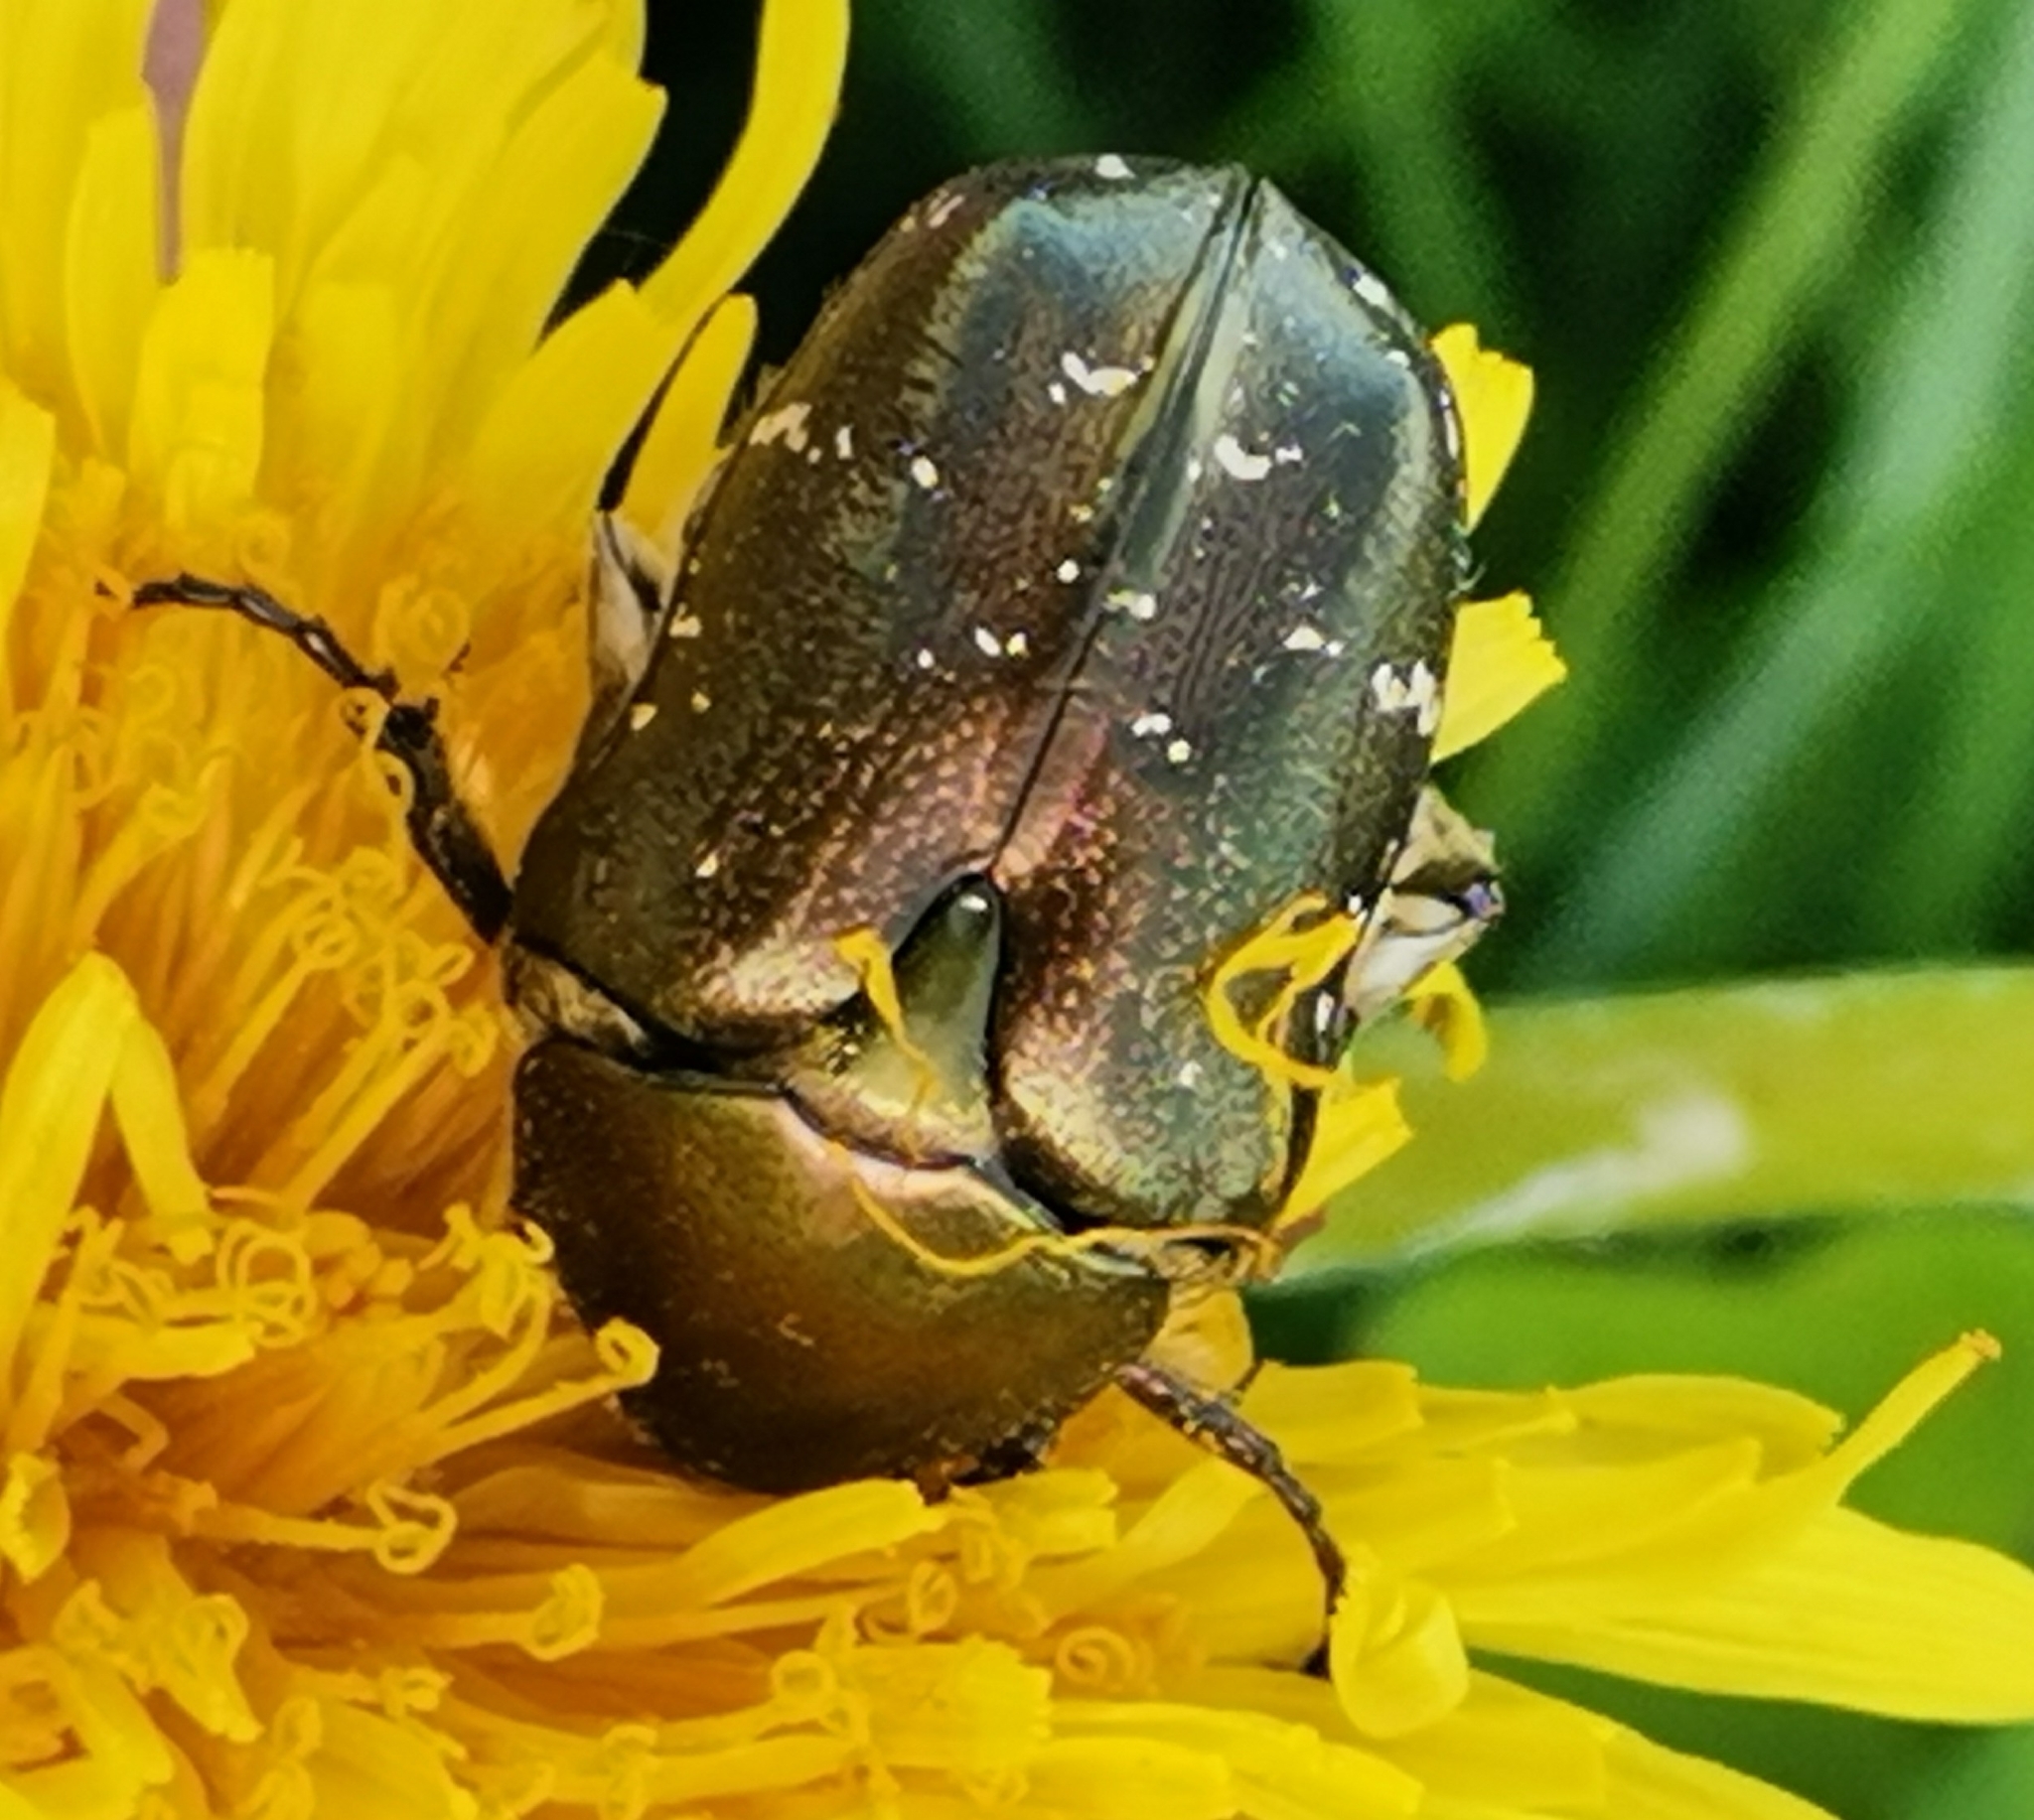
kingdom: Animalia
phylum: Arthropoda
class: Insecta
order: Coleoptera
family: Scarabaeidae
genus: Protaetia
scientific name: Protaetia cuprea
